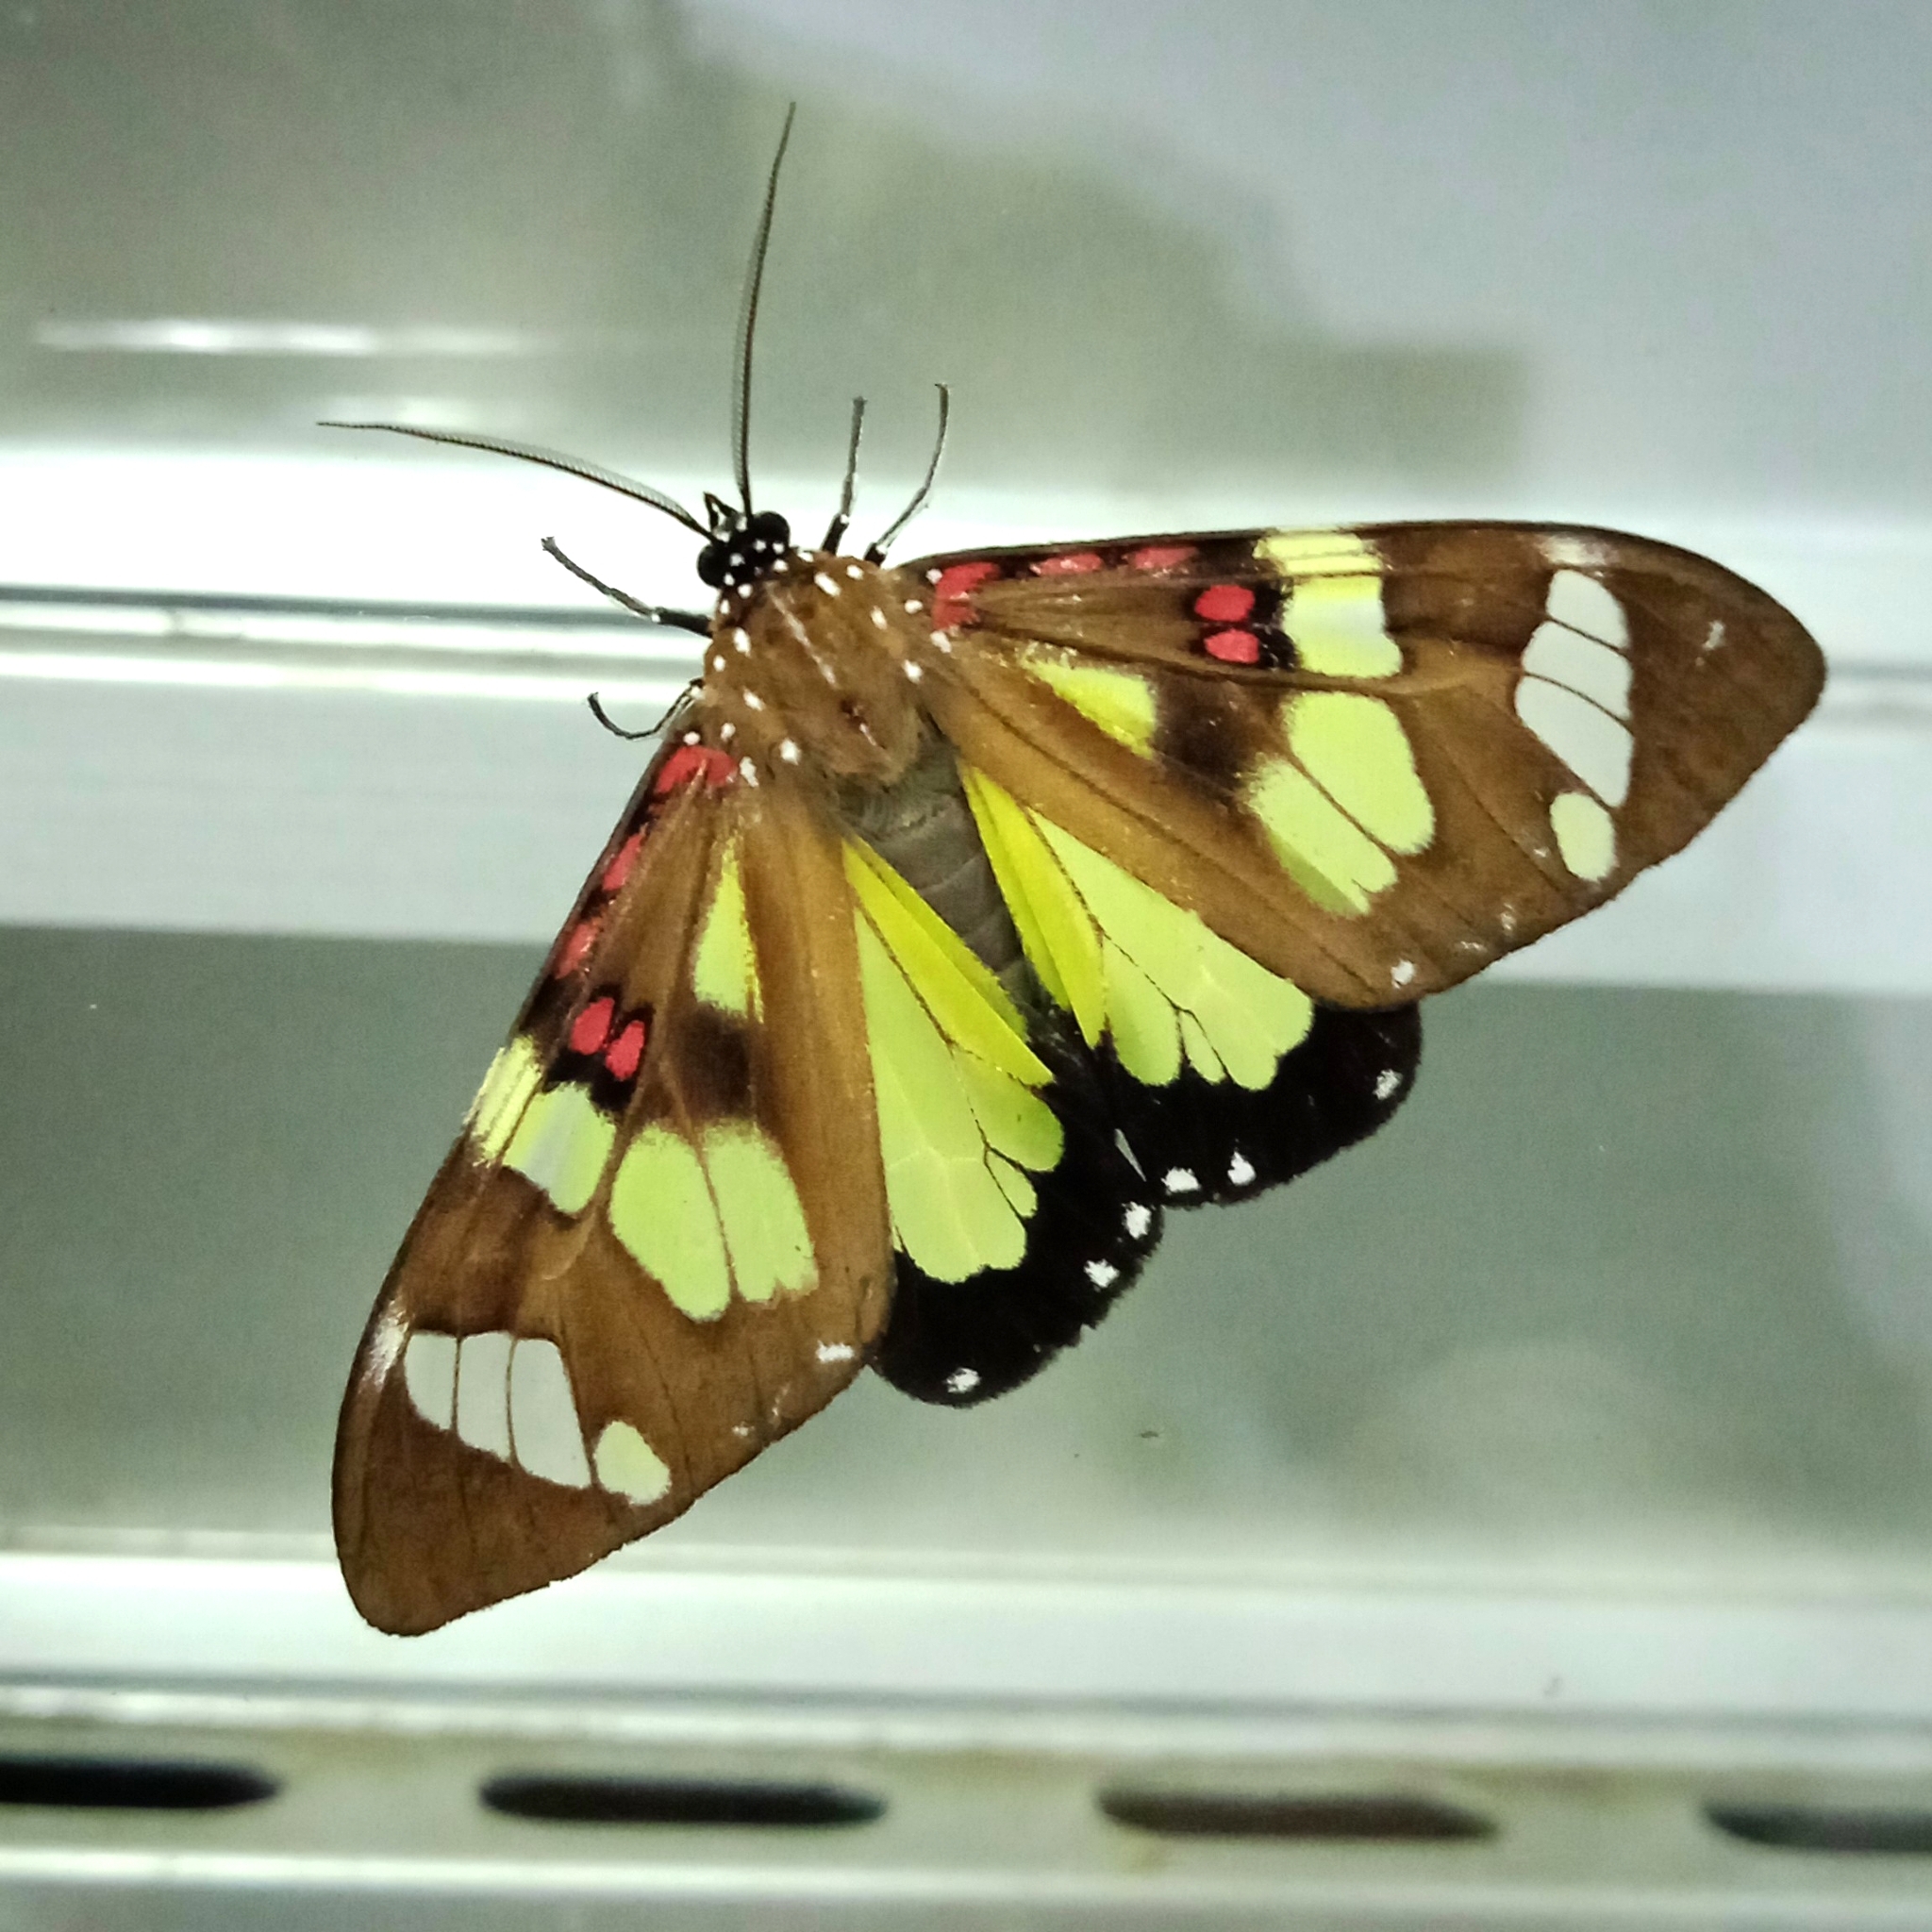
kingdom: Animalia
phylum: Arthropoda
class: Insecta
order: Lepidoptera
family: Erebidae
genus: Phaloe
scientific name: Phaloe cruenta
